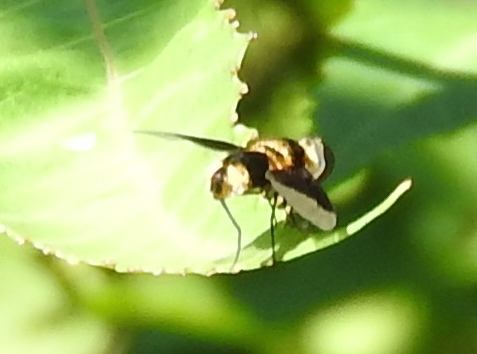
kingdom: Animalia
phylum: Arthropoda
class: Insecta
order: Diptera
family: Bombyliidae
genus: Ins
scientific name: Ins celeris
